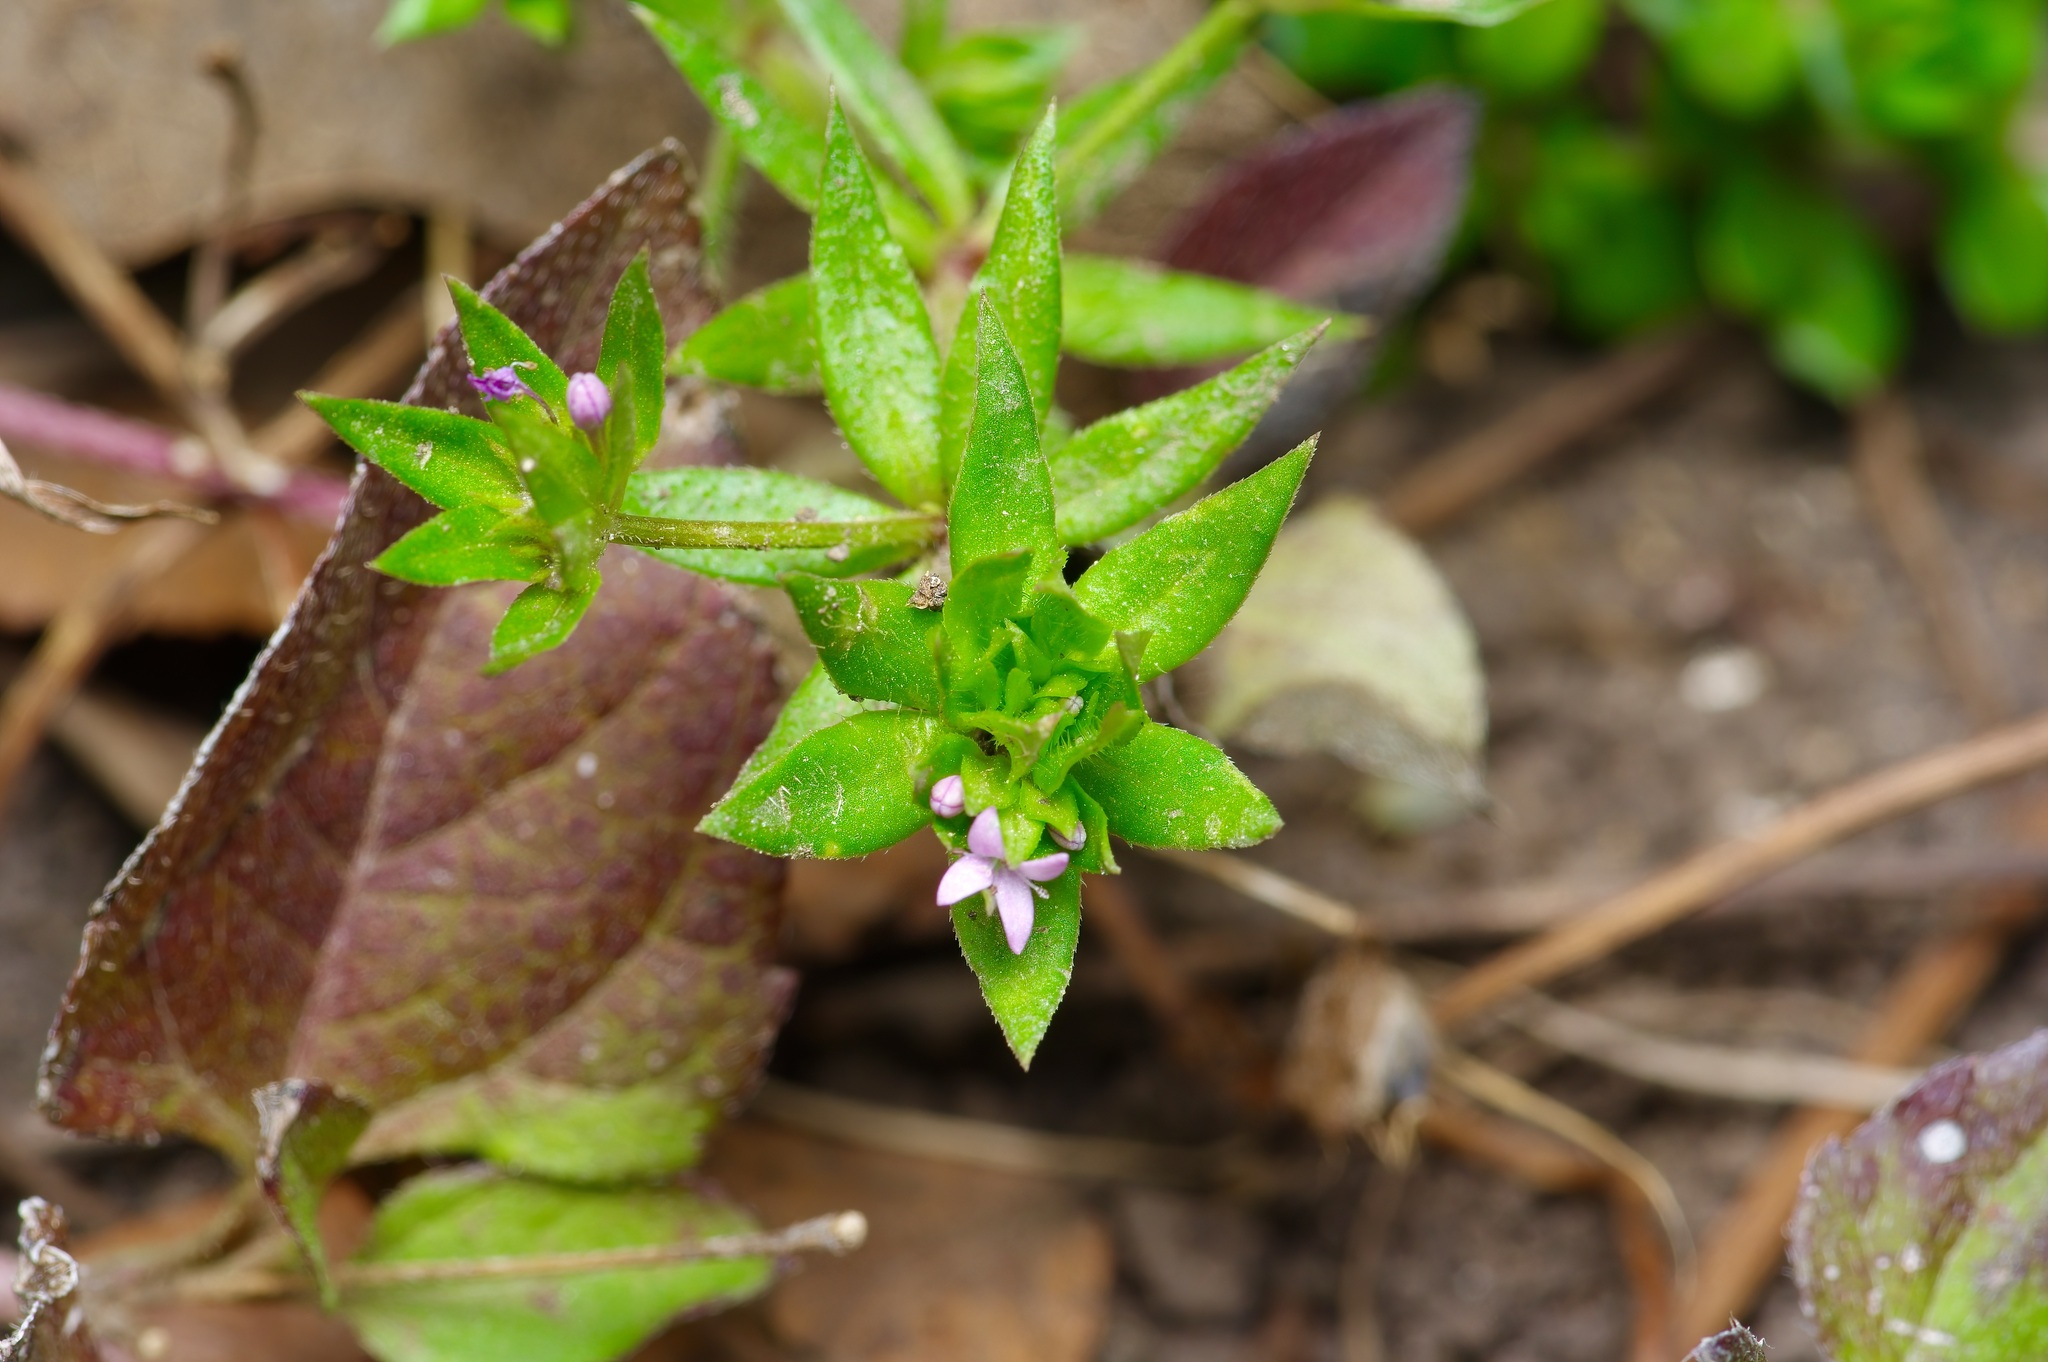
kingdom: Plantae
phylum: Tracheophyta
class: Magnoliopsida
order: Gentianales
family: Rubiaceae
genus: Sherardia
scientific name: Sherardia arvensis
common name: Field madder
